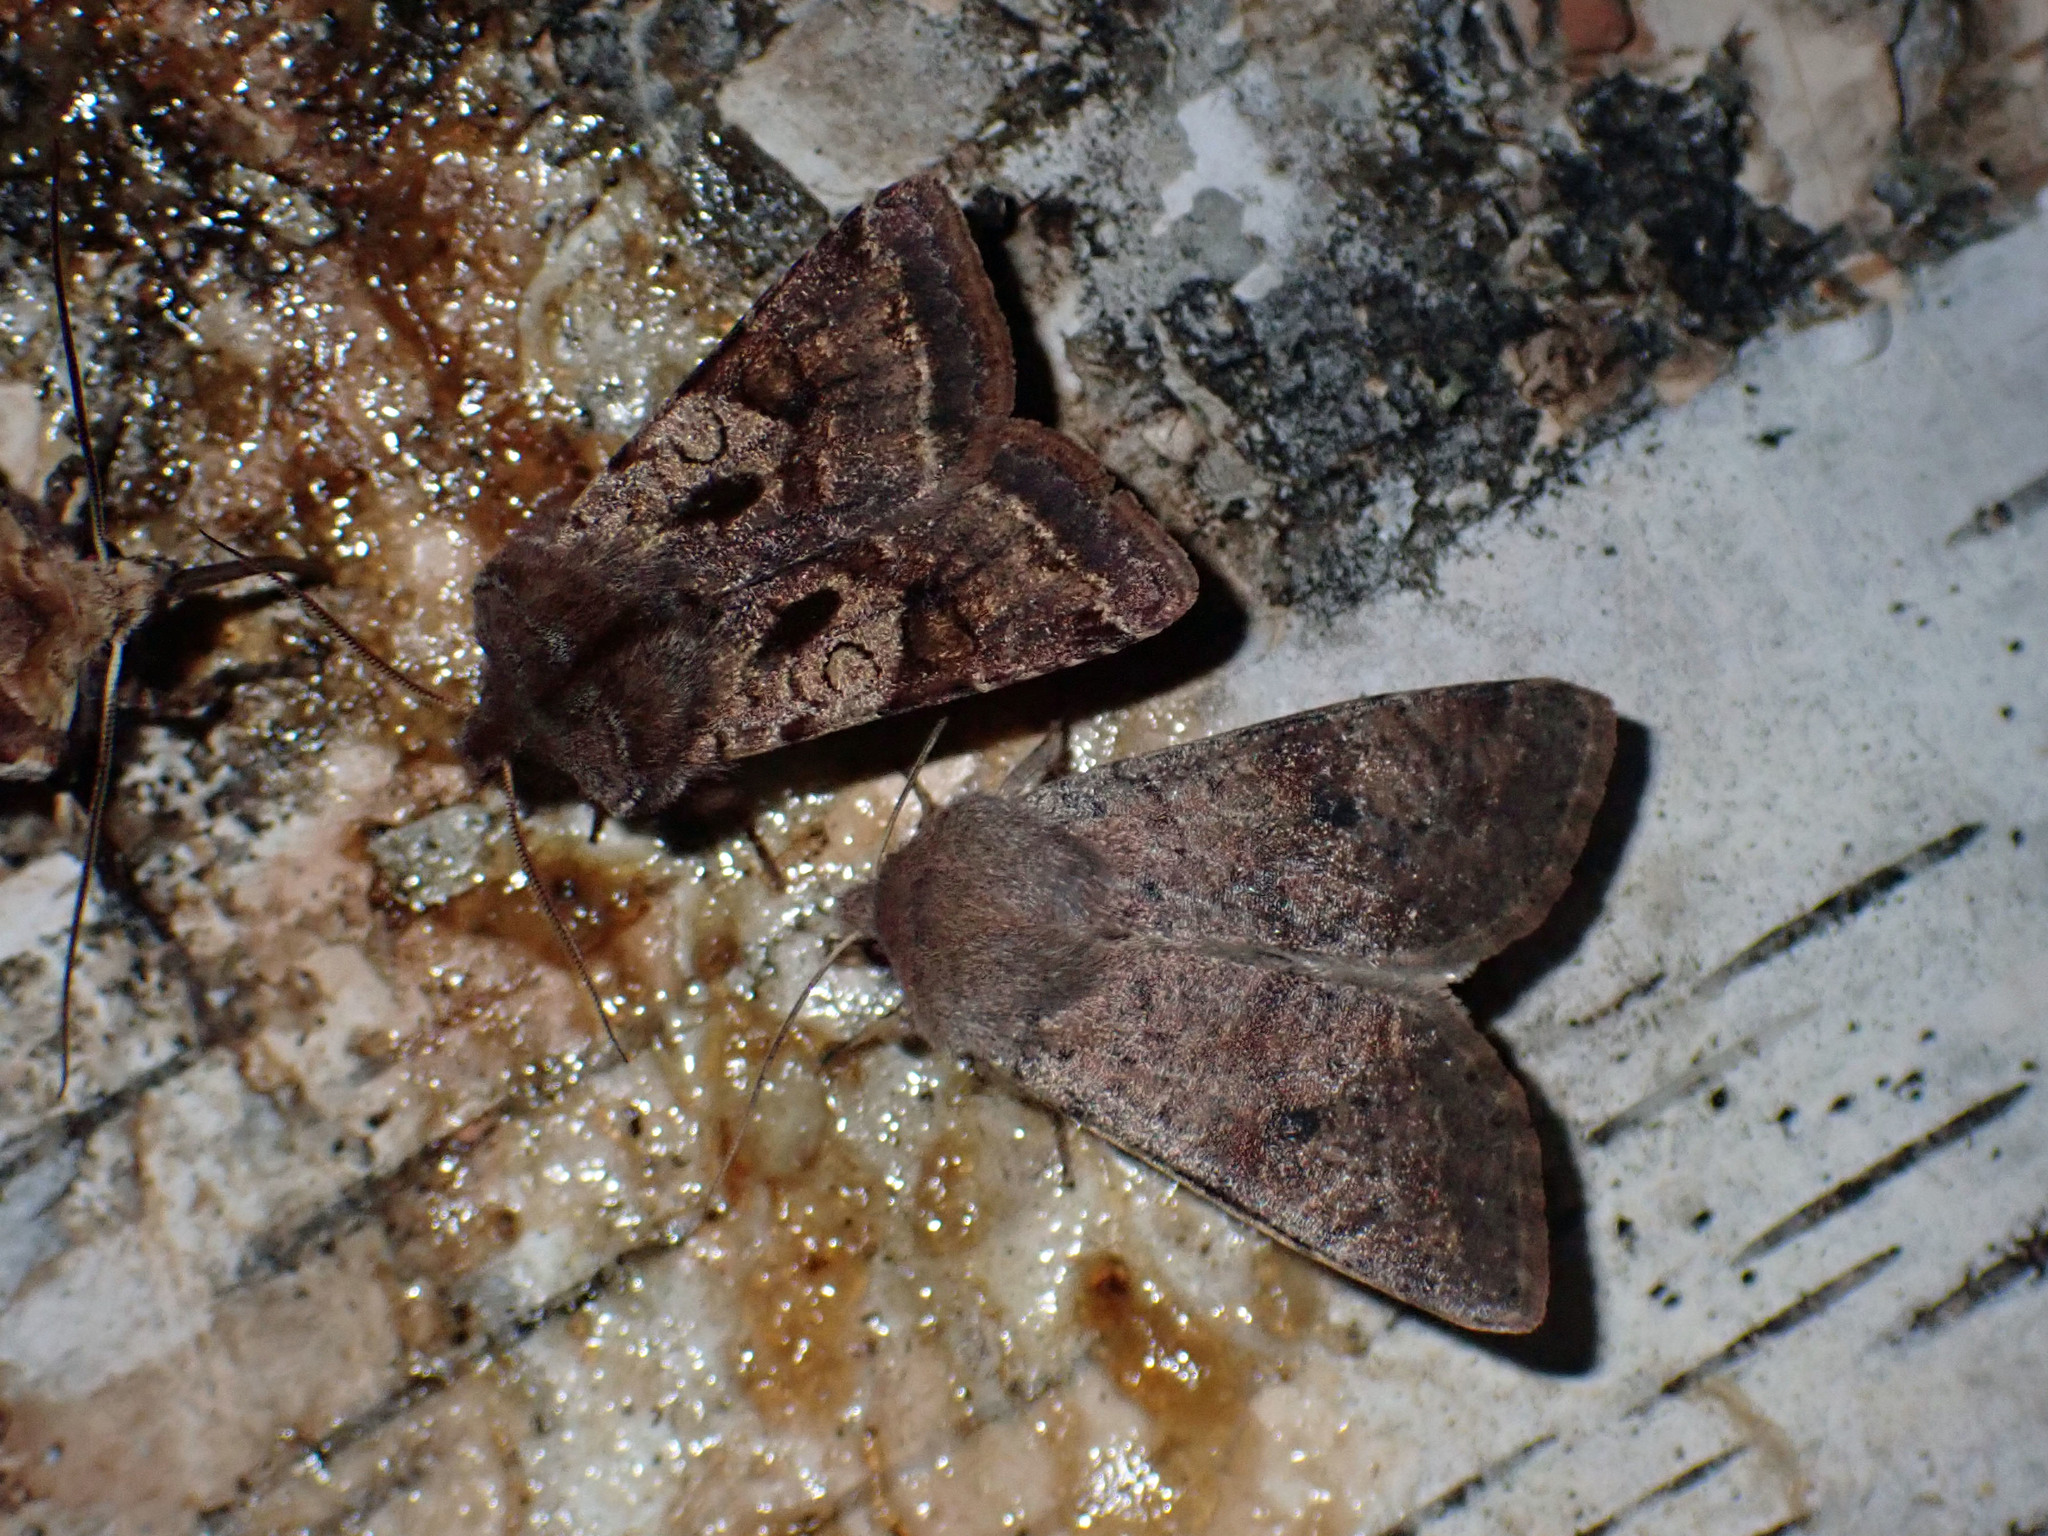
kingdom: Animalia
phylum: Arthropoda
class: Insecta
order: Lepidoptera
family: Noctuidae
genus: Cerastis
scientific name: Cerastis salicarum
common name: Willow dart
